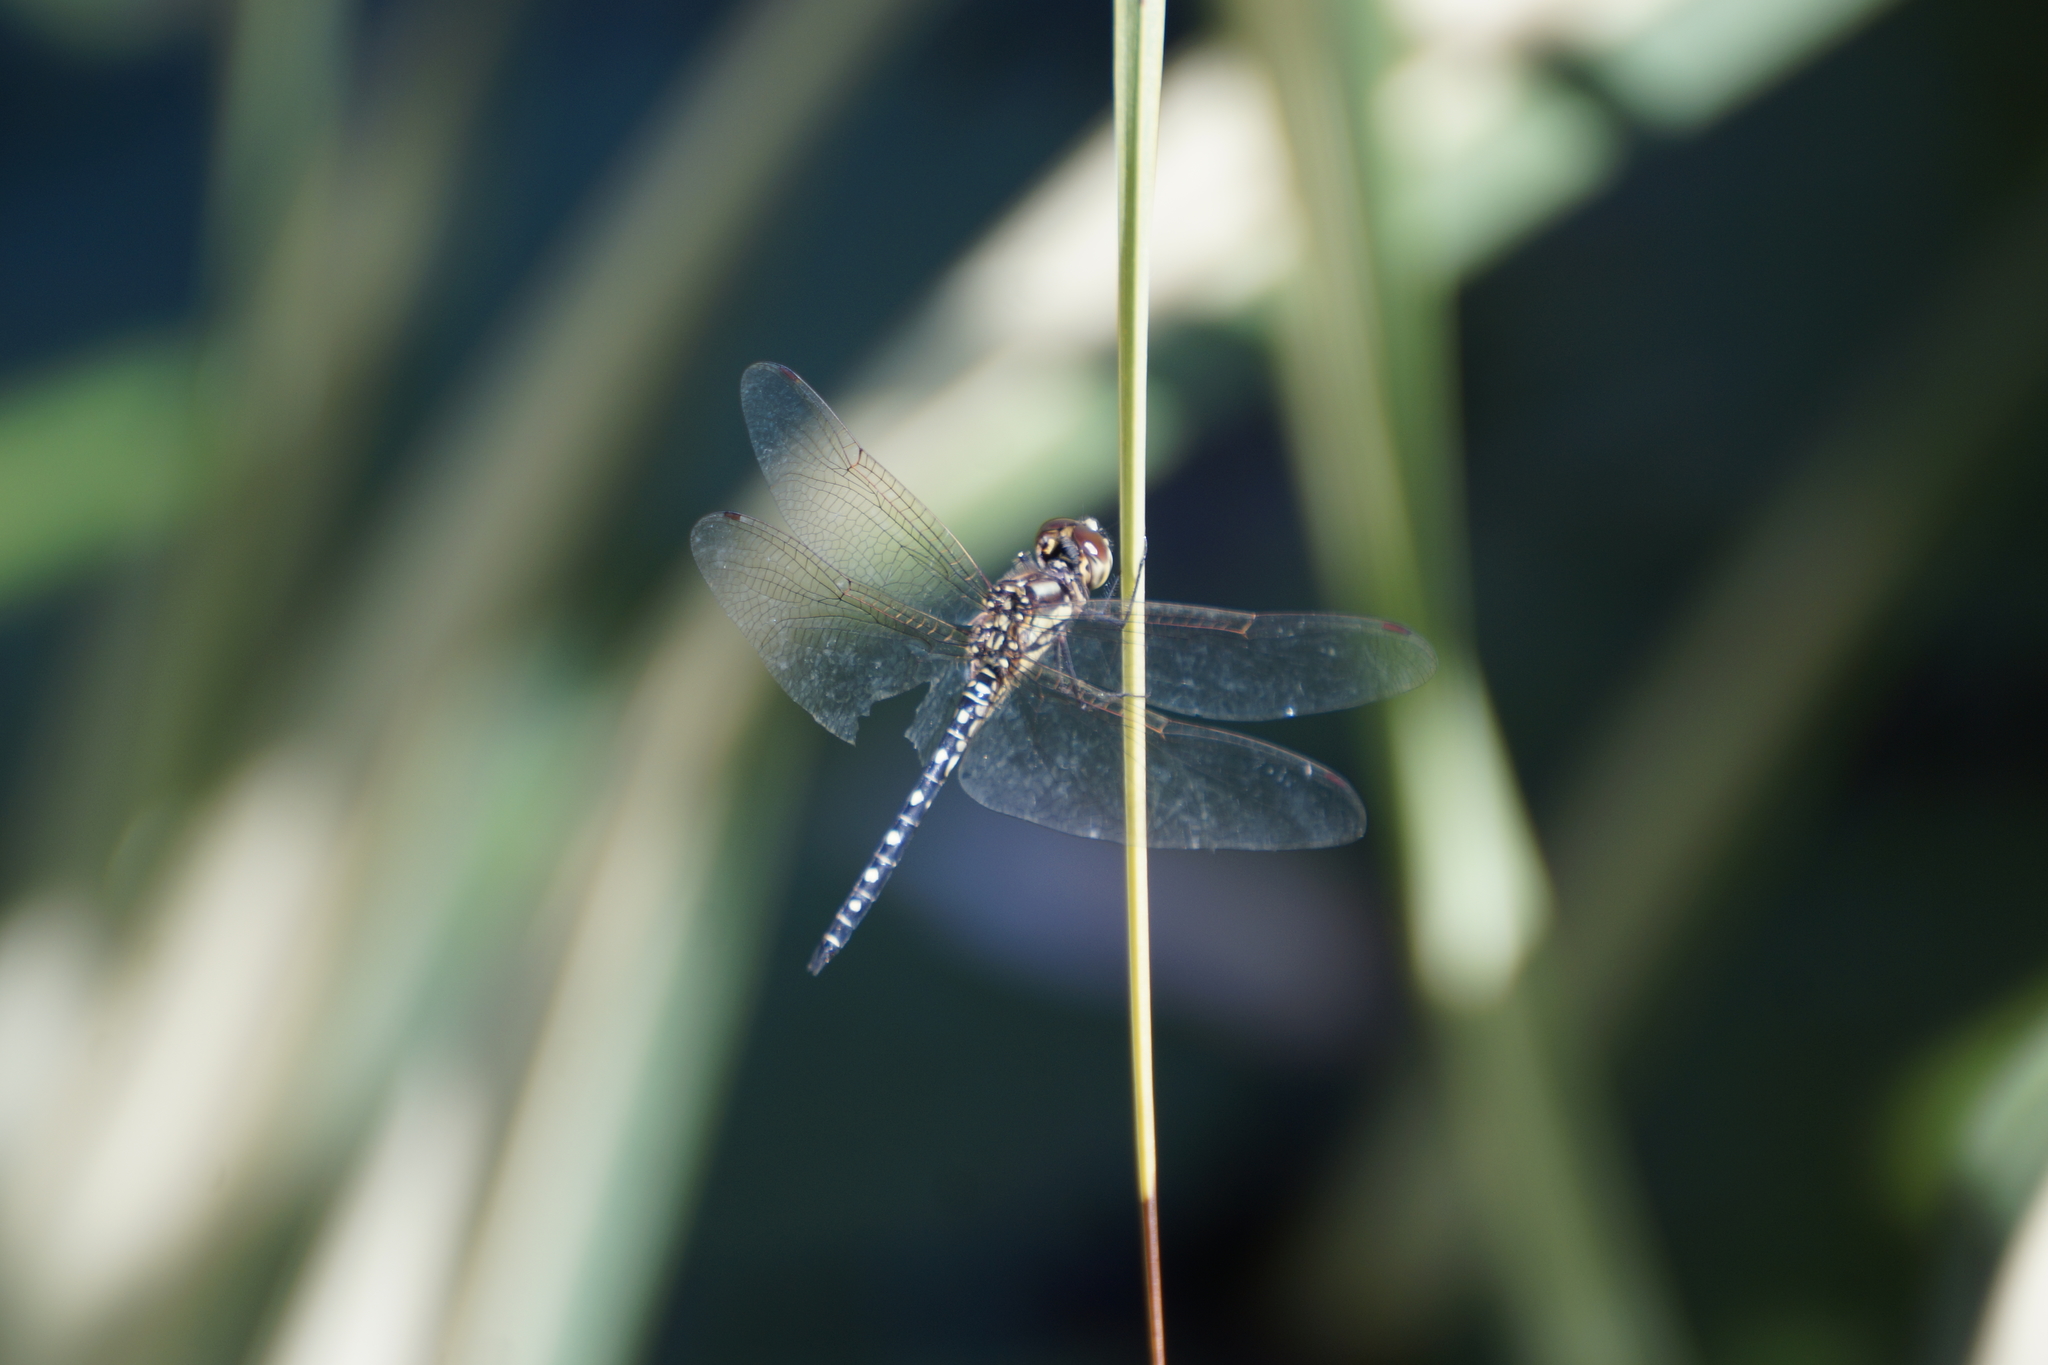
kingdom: Animalia
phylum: Arthropoda
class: Insecta
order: Odonata
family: Libellulidae
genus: Hydrobasileus
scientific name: Hydrobasileus brevistylus
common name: Water prince
